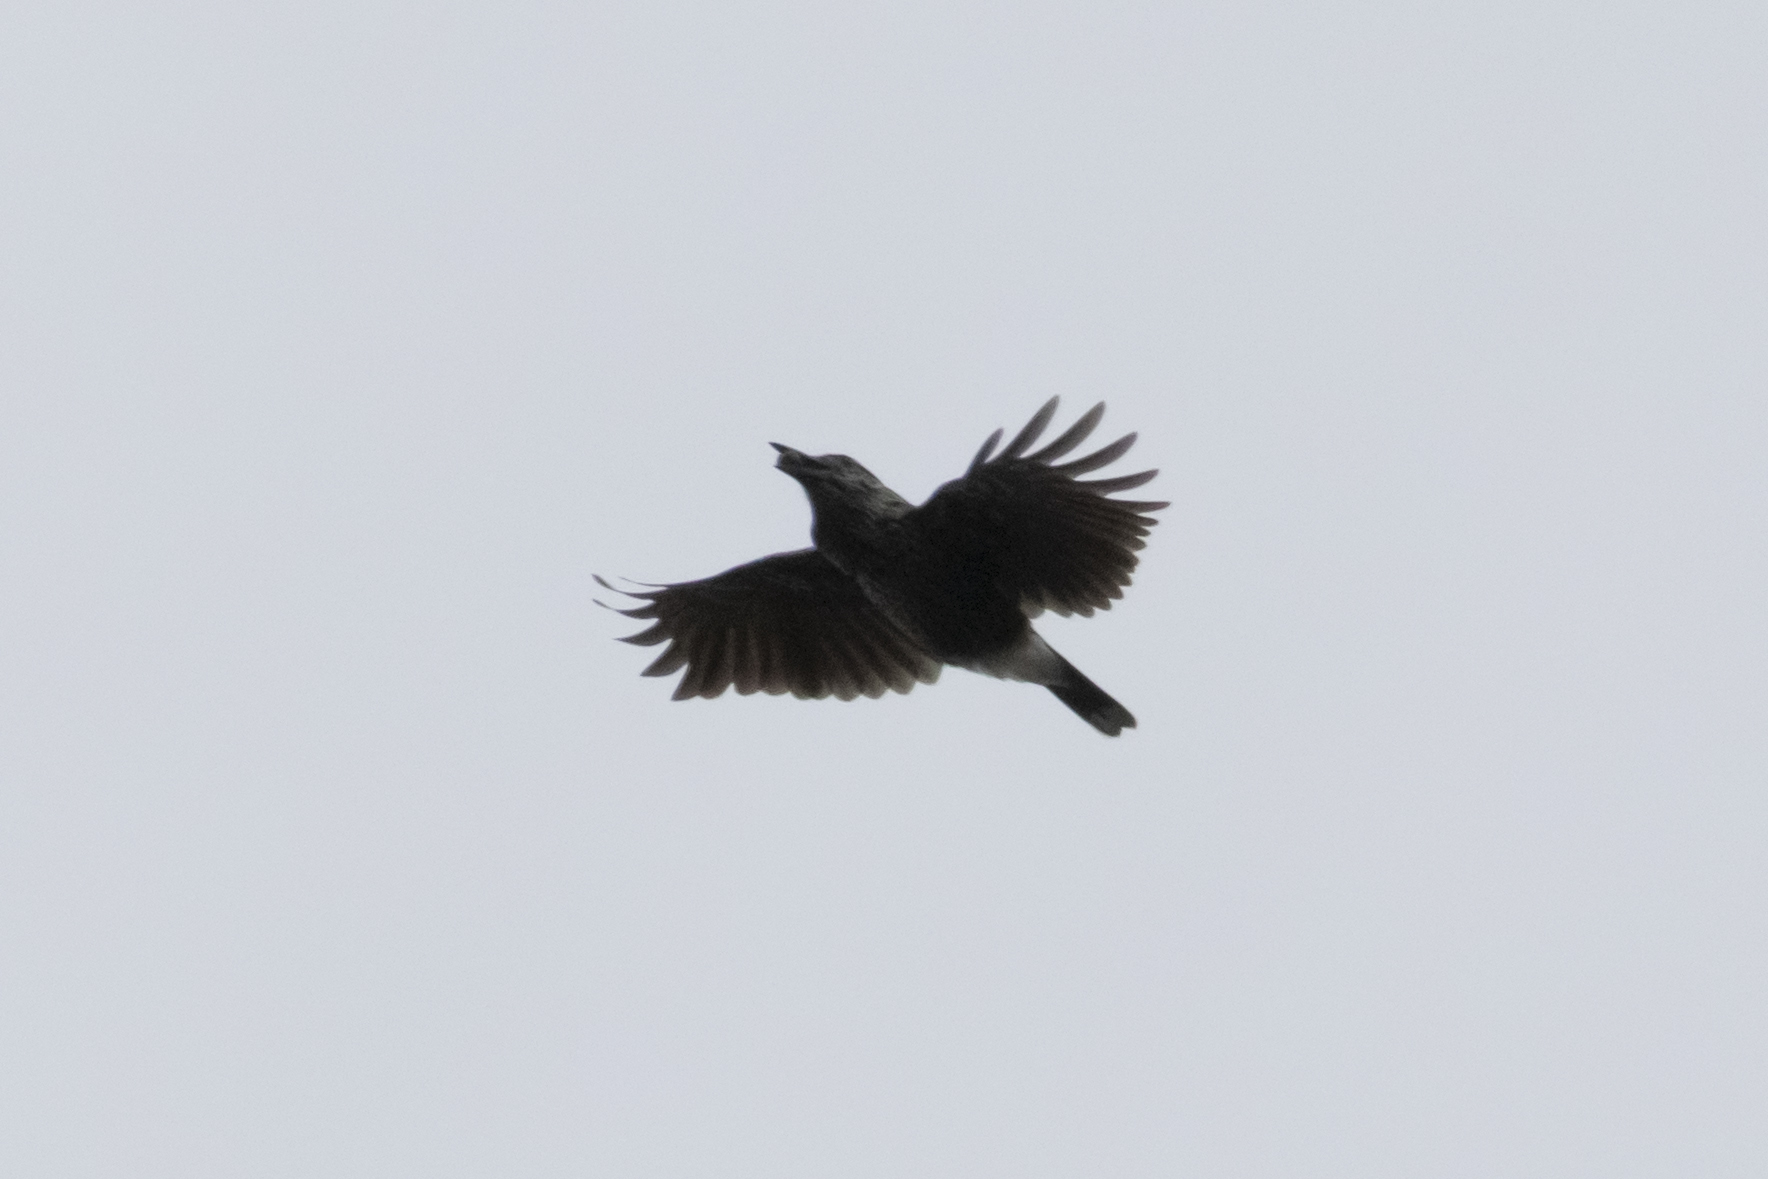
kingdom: Animalia
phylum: Chordata
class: Aves
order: Passeriformes
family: Corvidae
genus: Nucifraga
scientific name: Nucifraga caryocatactes
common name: Spotted nutcracker
